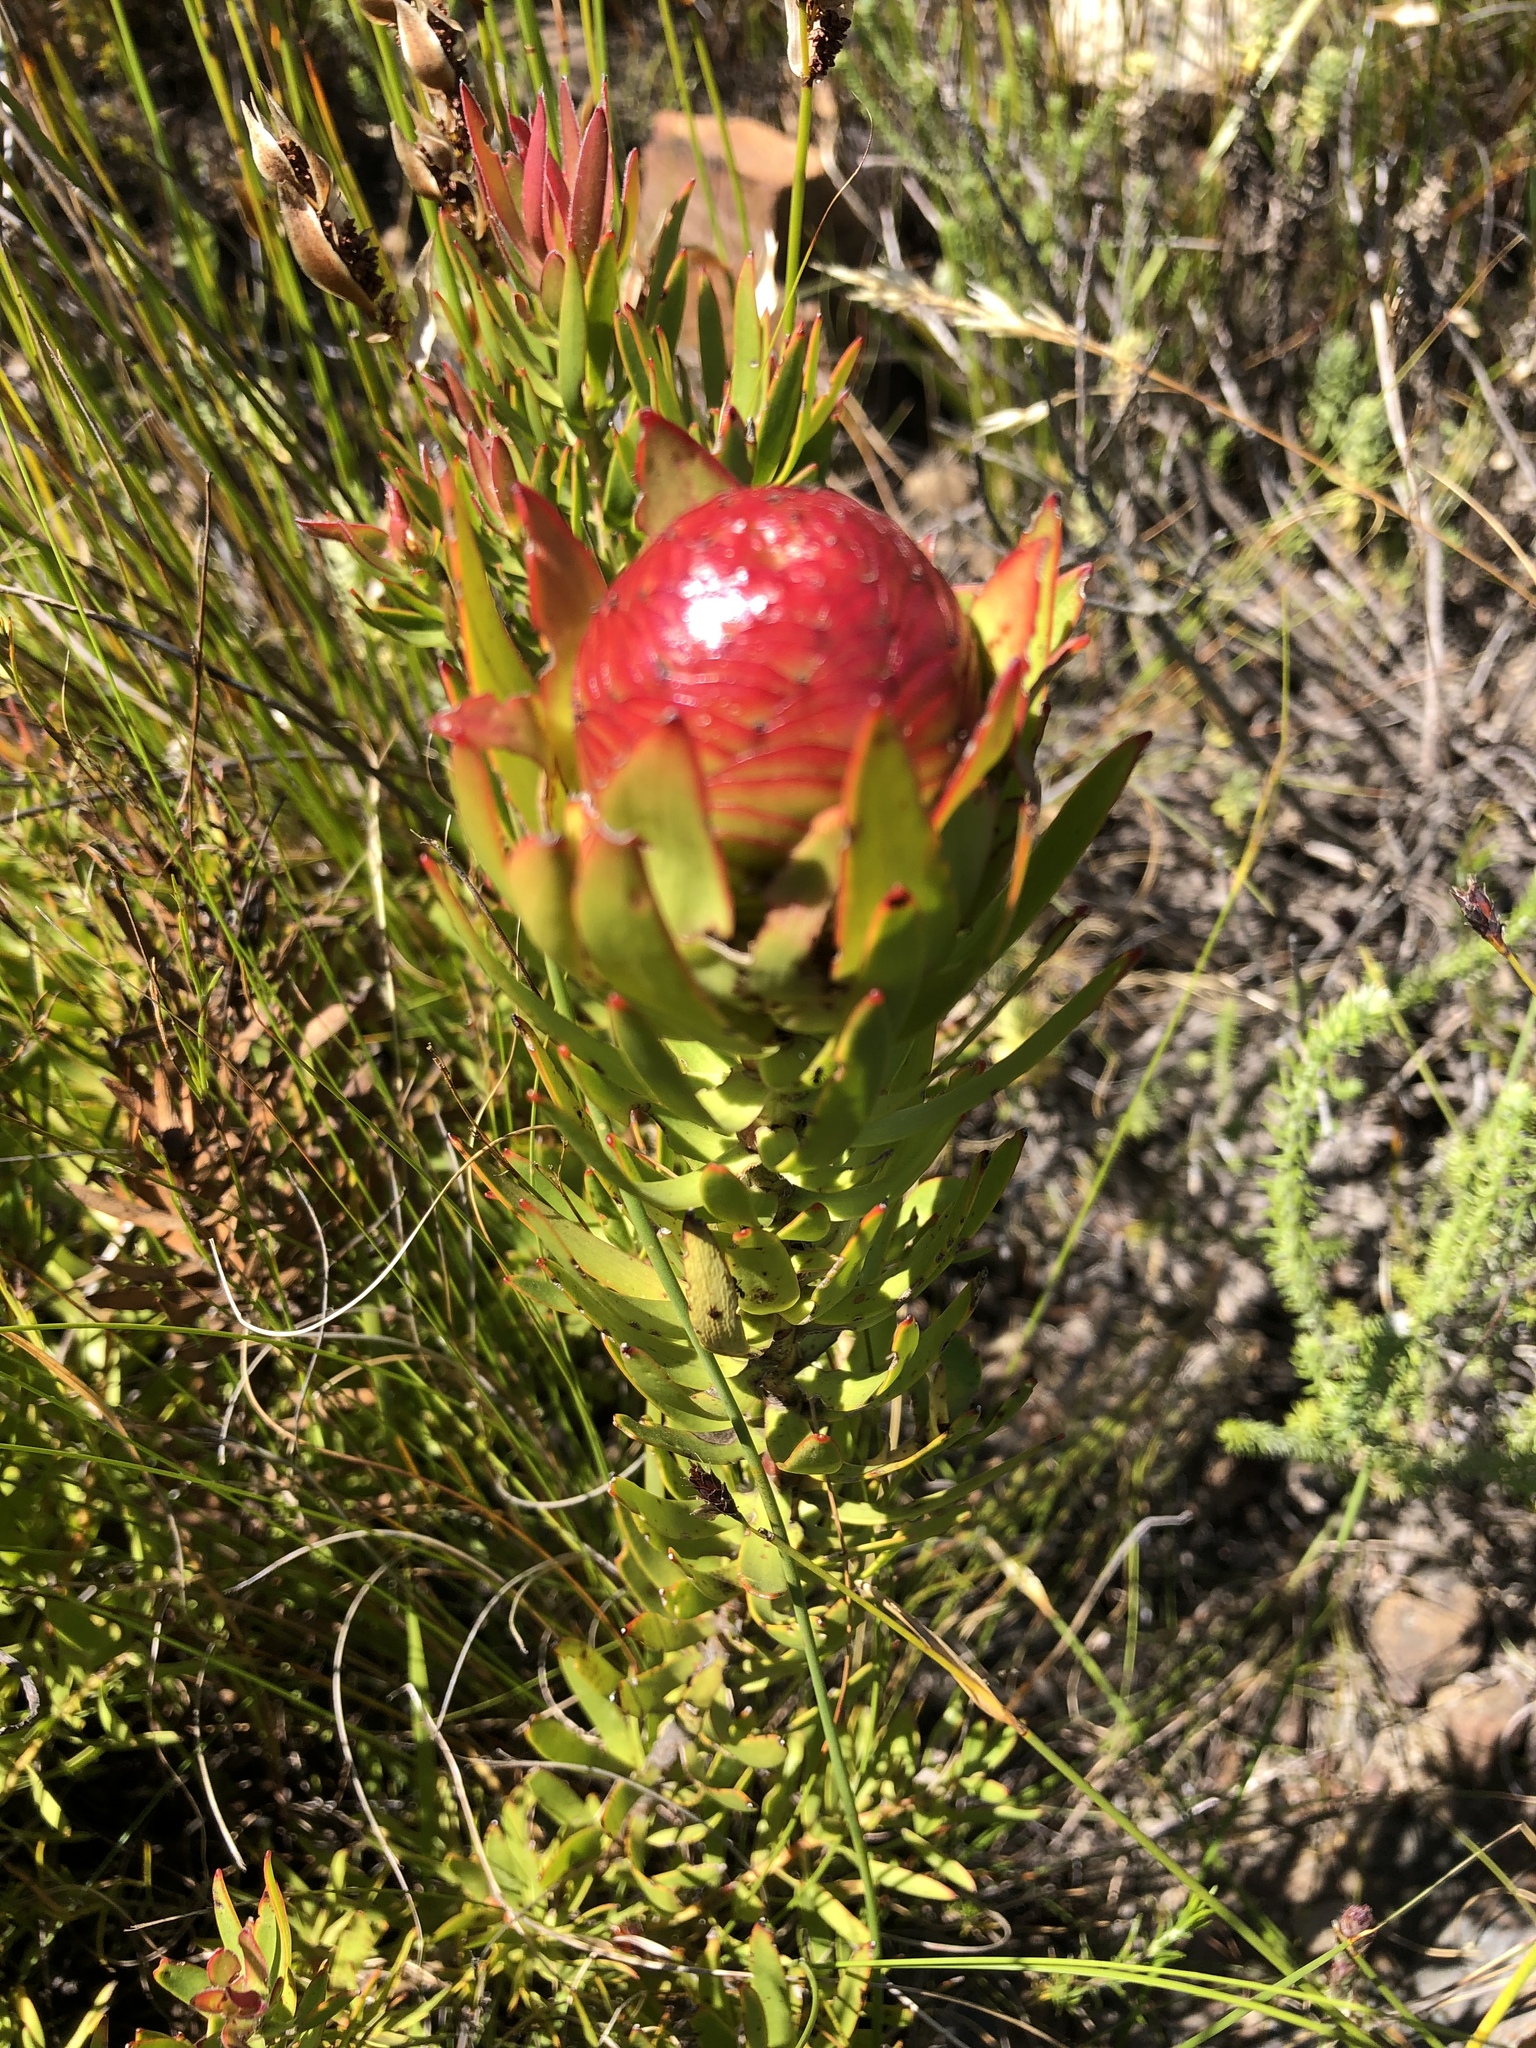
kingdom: Plantae
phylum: Tracheophyta
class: Magnoliopsida
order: Proteales
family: Proteaceae
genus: Leucadendron
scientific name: Leucadendron spissifolium
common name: Spear-leaf conebush
